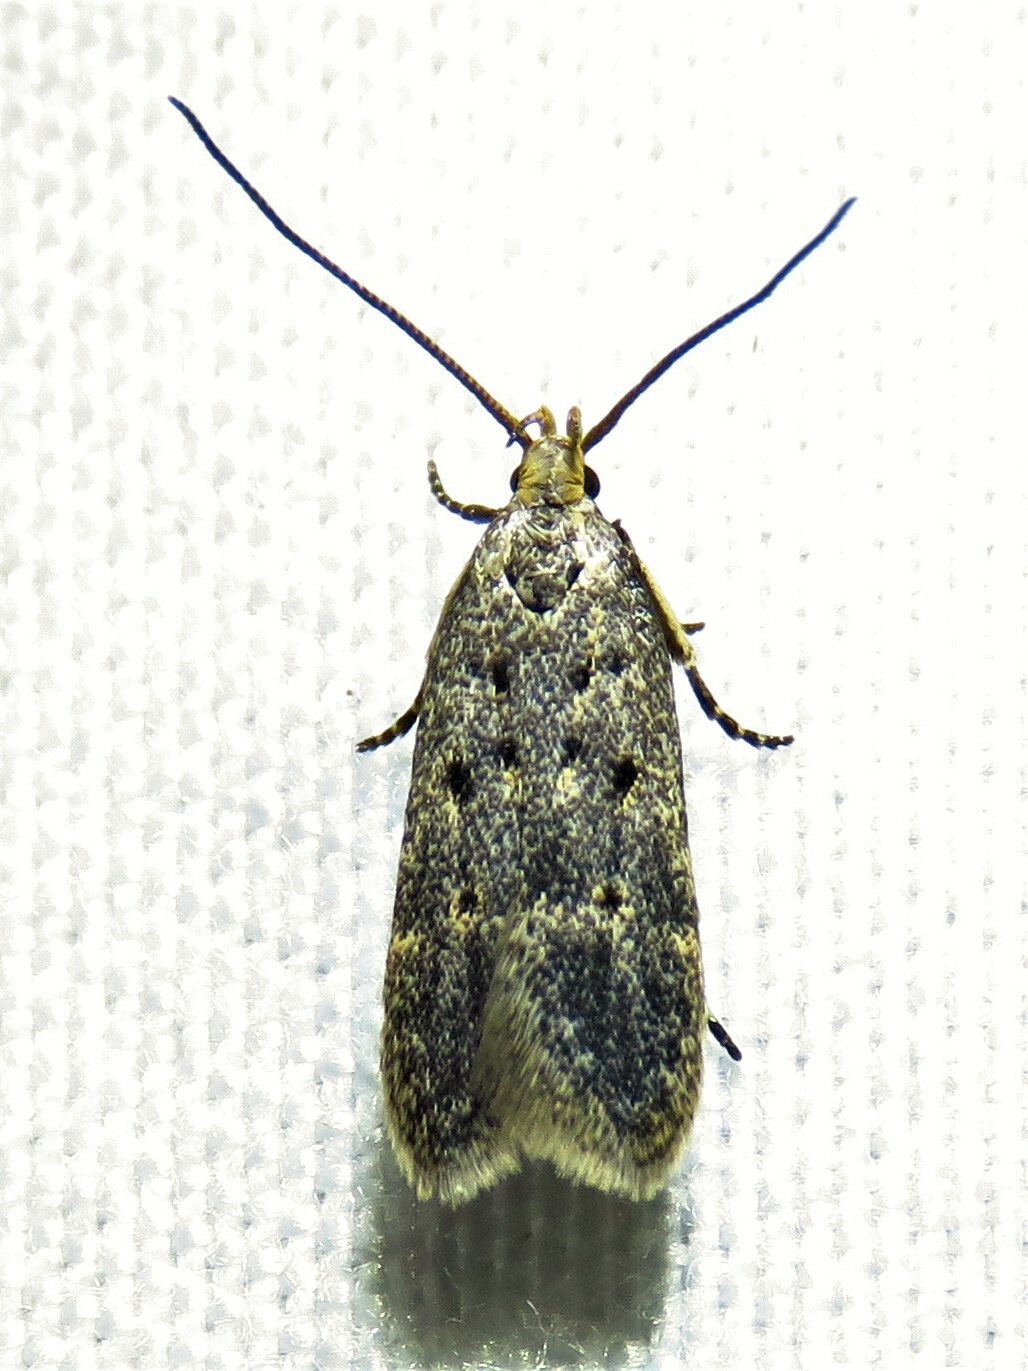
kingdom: Animalia
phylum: Arthropoda
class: Insecta
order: Lepidoptera
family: Gelechiidae
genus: Neodactylota
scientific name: Neodactylota liguritrix
